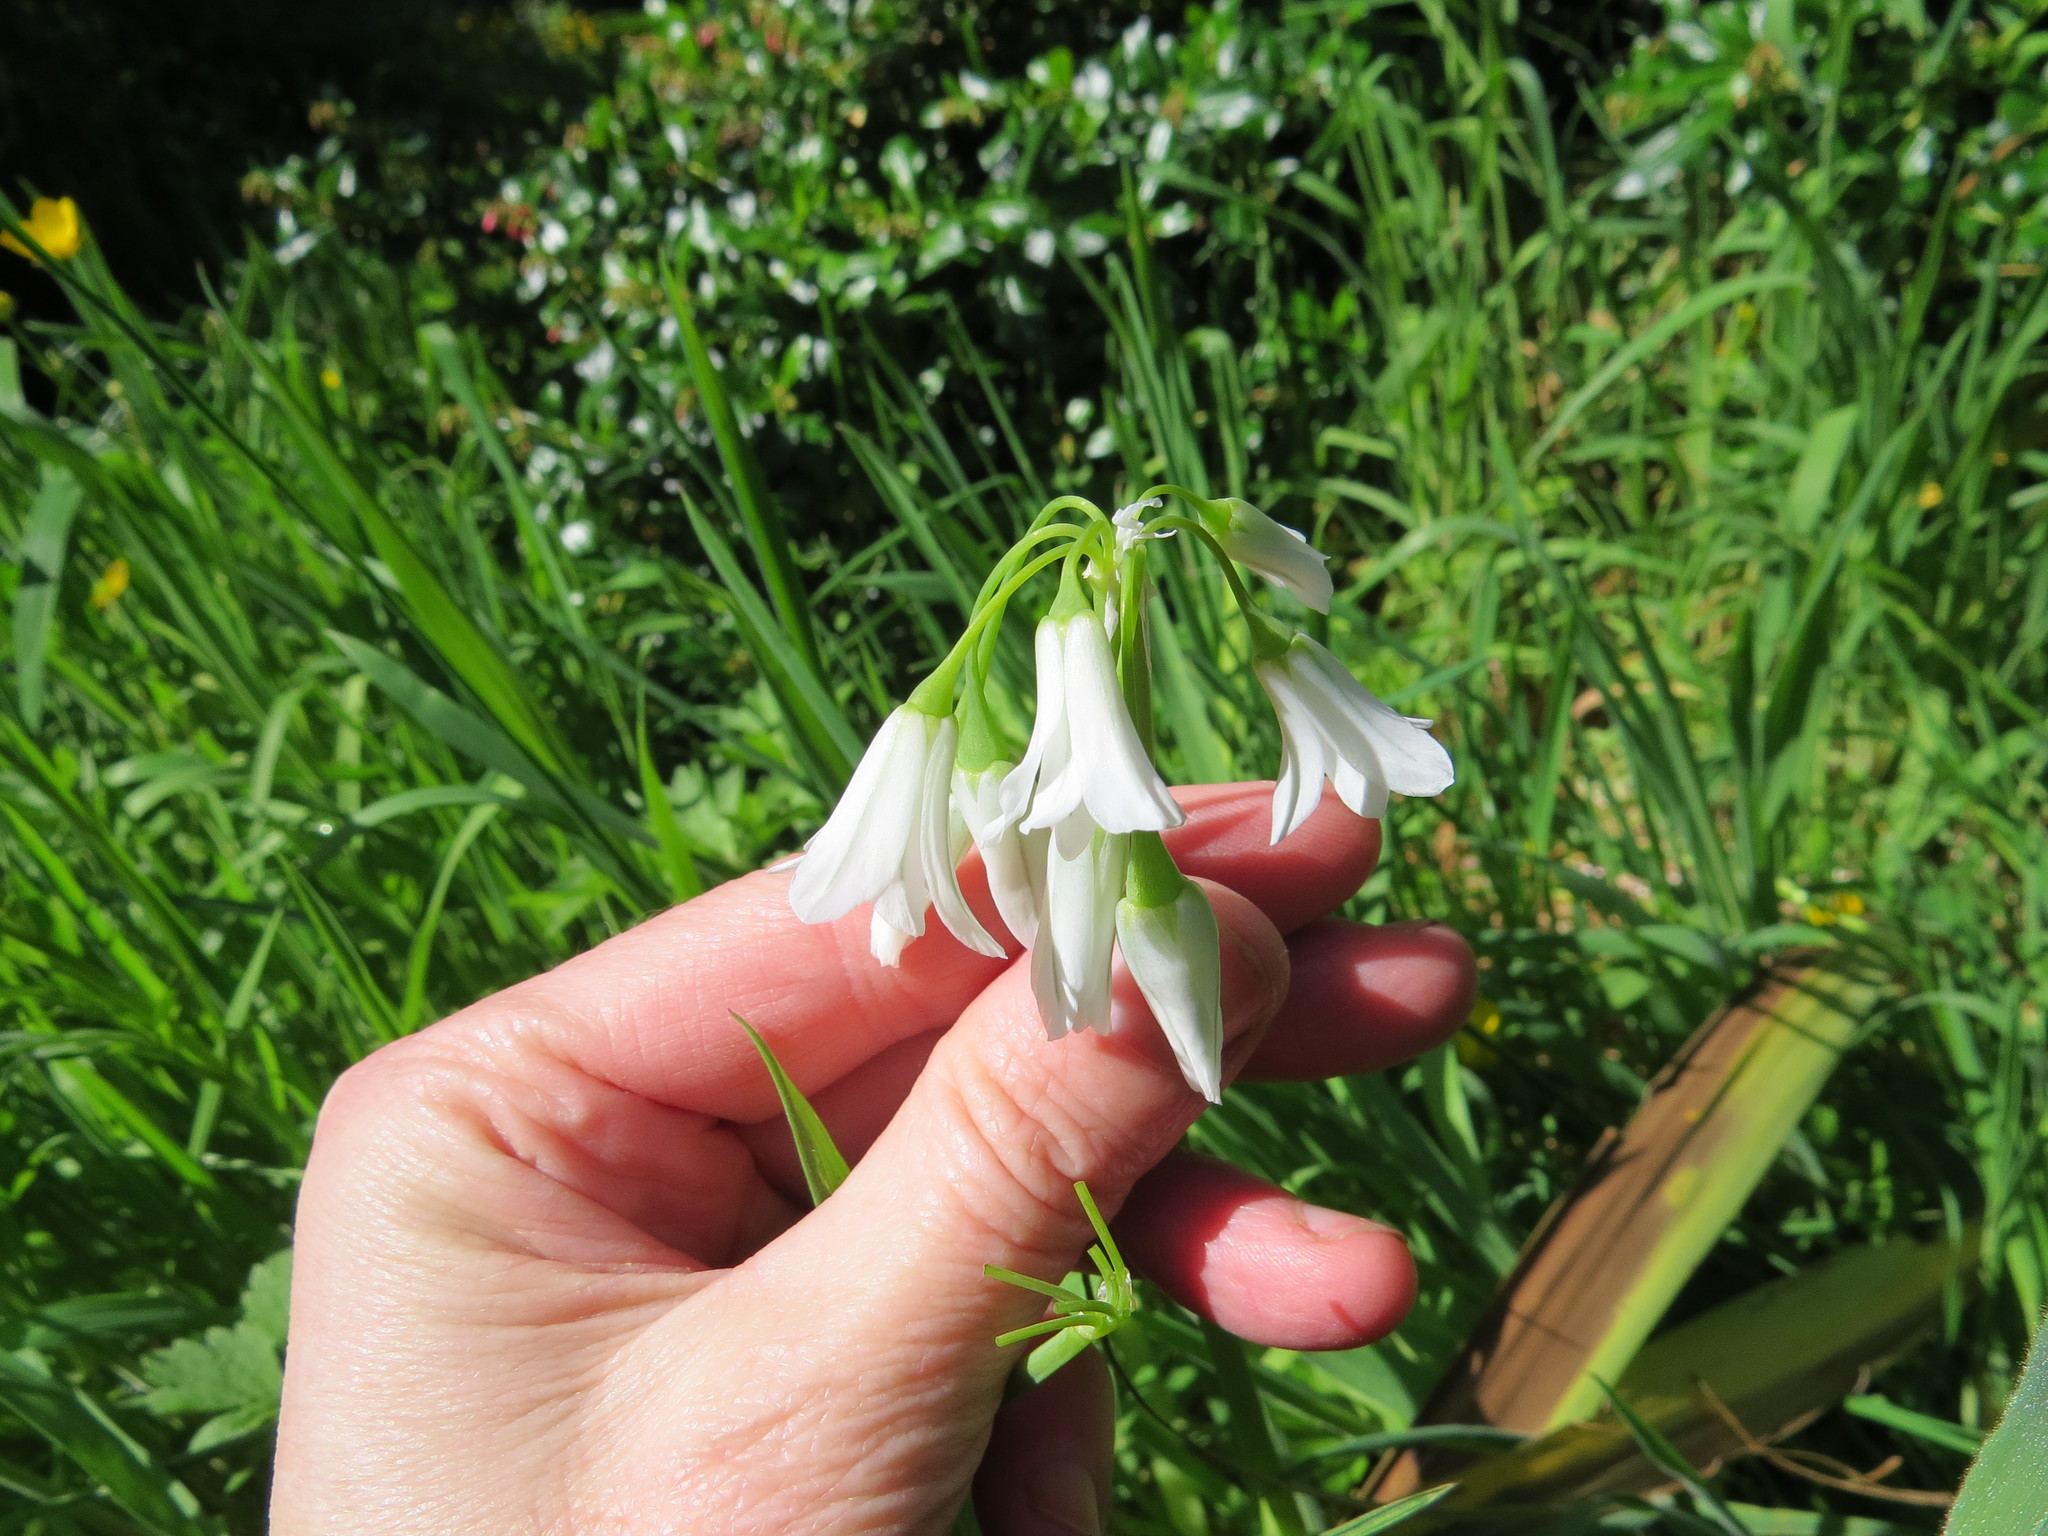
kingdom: Plantae
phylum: Tracheophyta
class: Liliopsida
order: Asparagales
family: Amaryllidaceae
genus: Allium
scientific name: Allium triquetrum
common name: Three-cornered garlic
